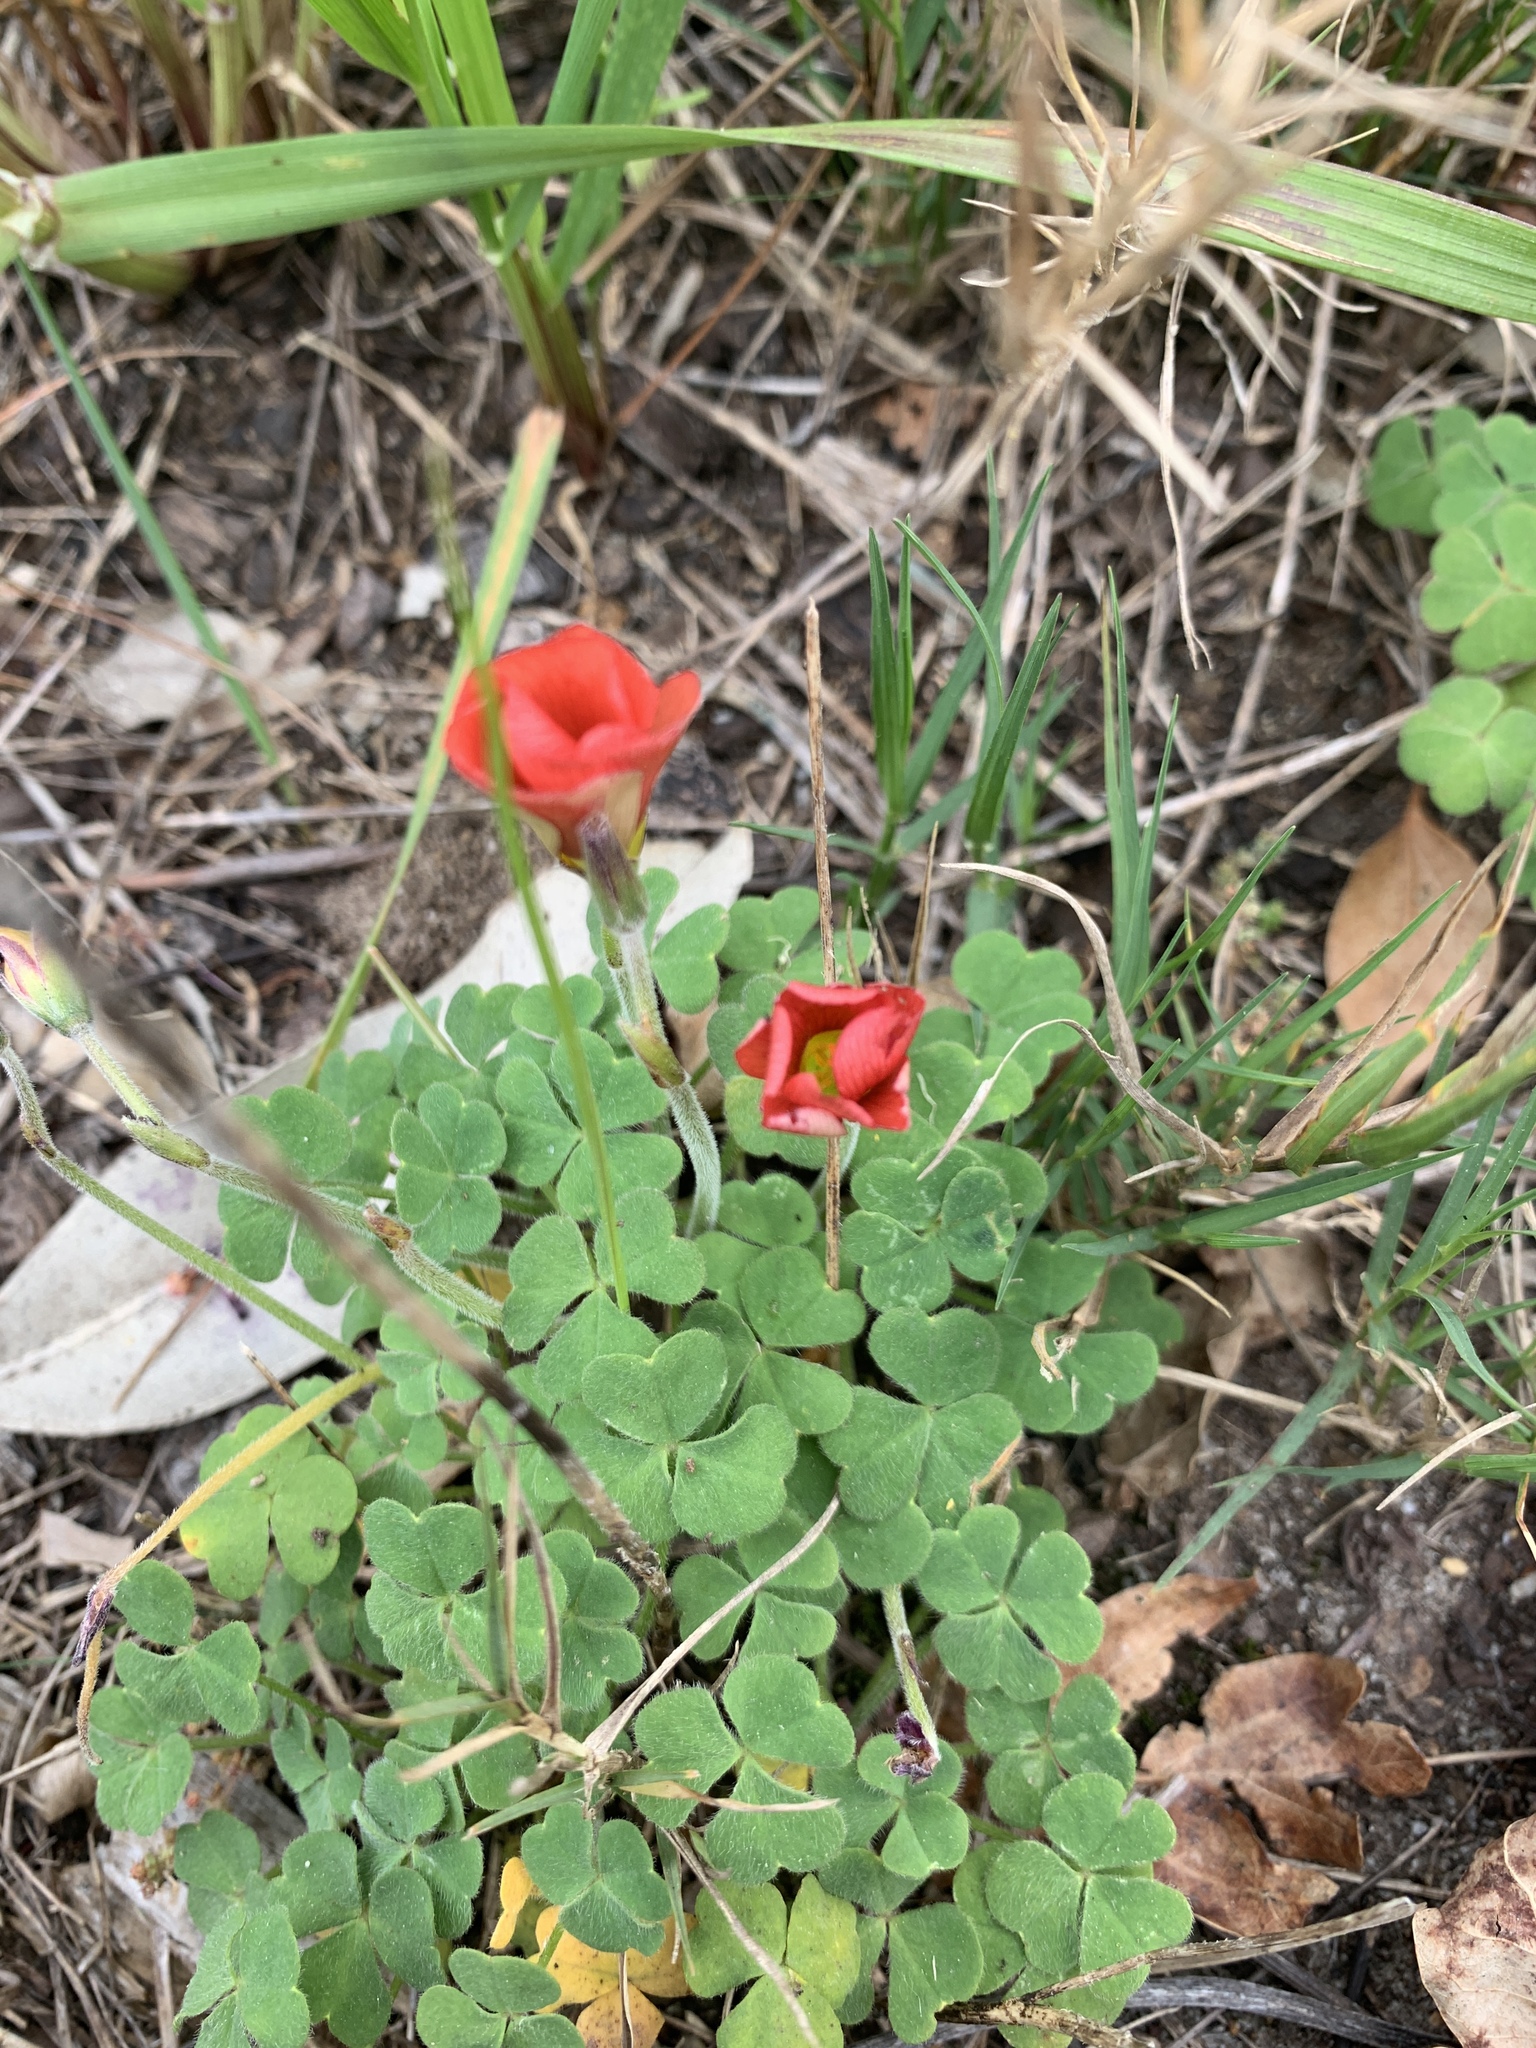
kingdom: Plantae
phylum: Tracheophyta
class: Magnoliopsida
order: Oxalidales
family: Oxalidaceae
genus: Oxalis
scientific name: Oxalis obtusa
